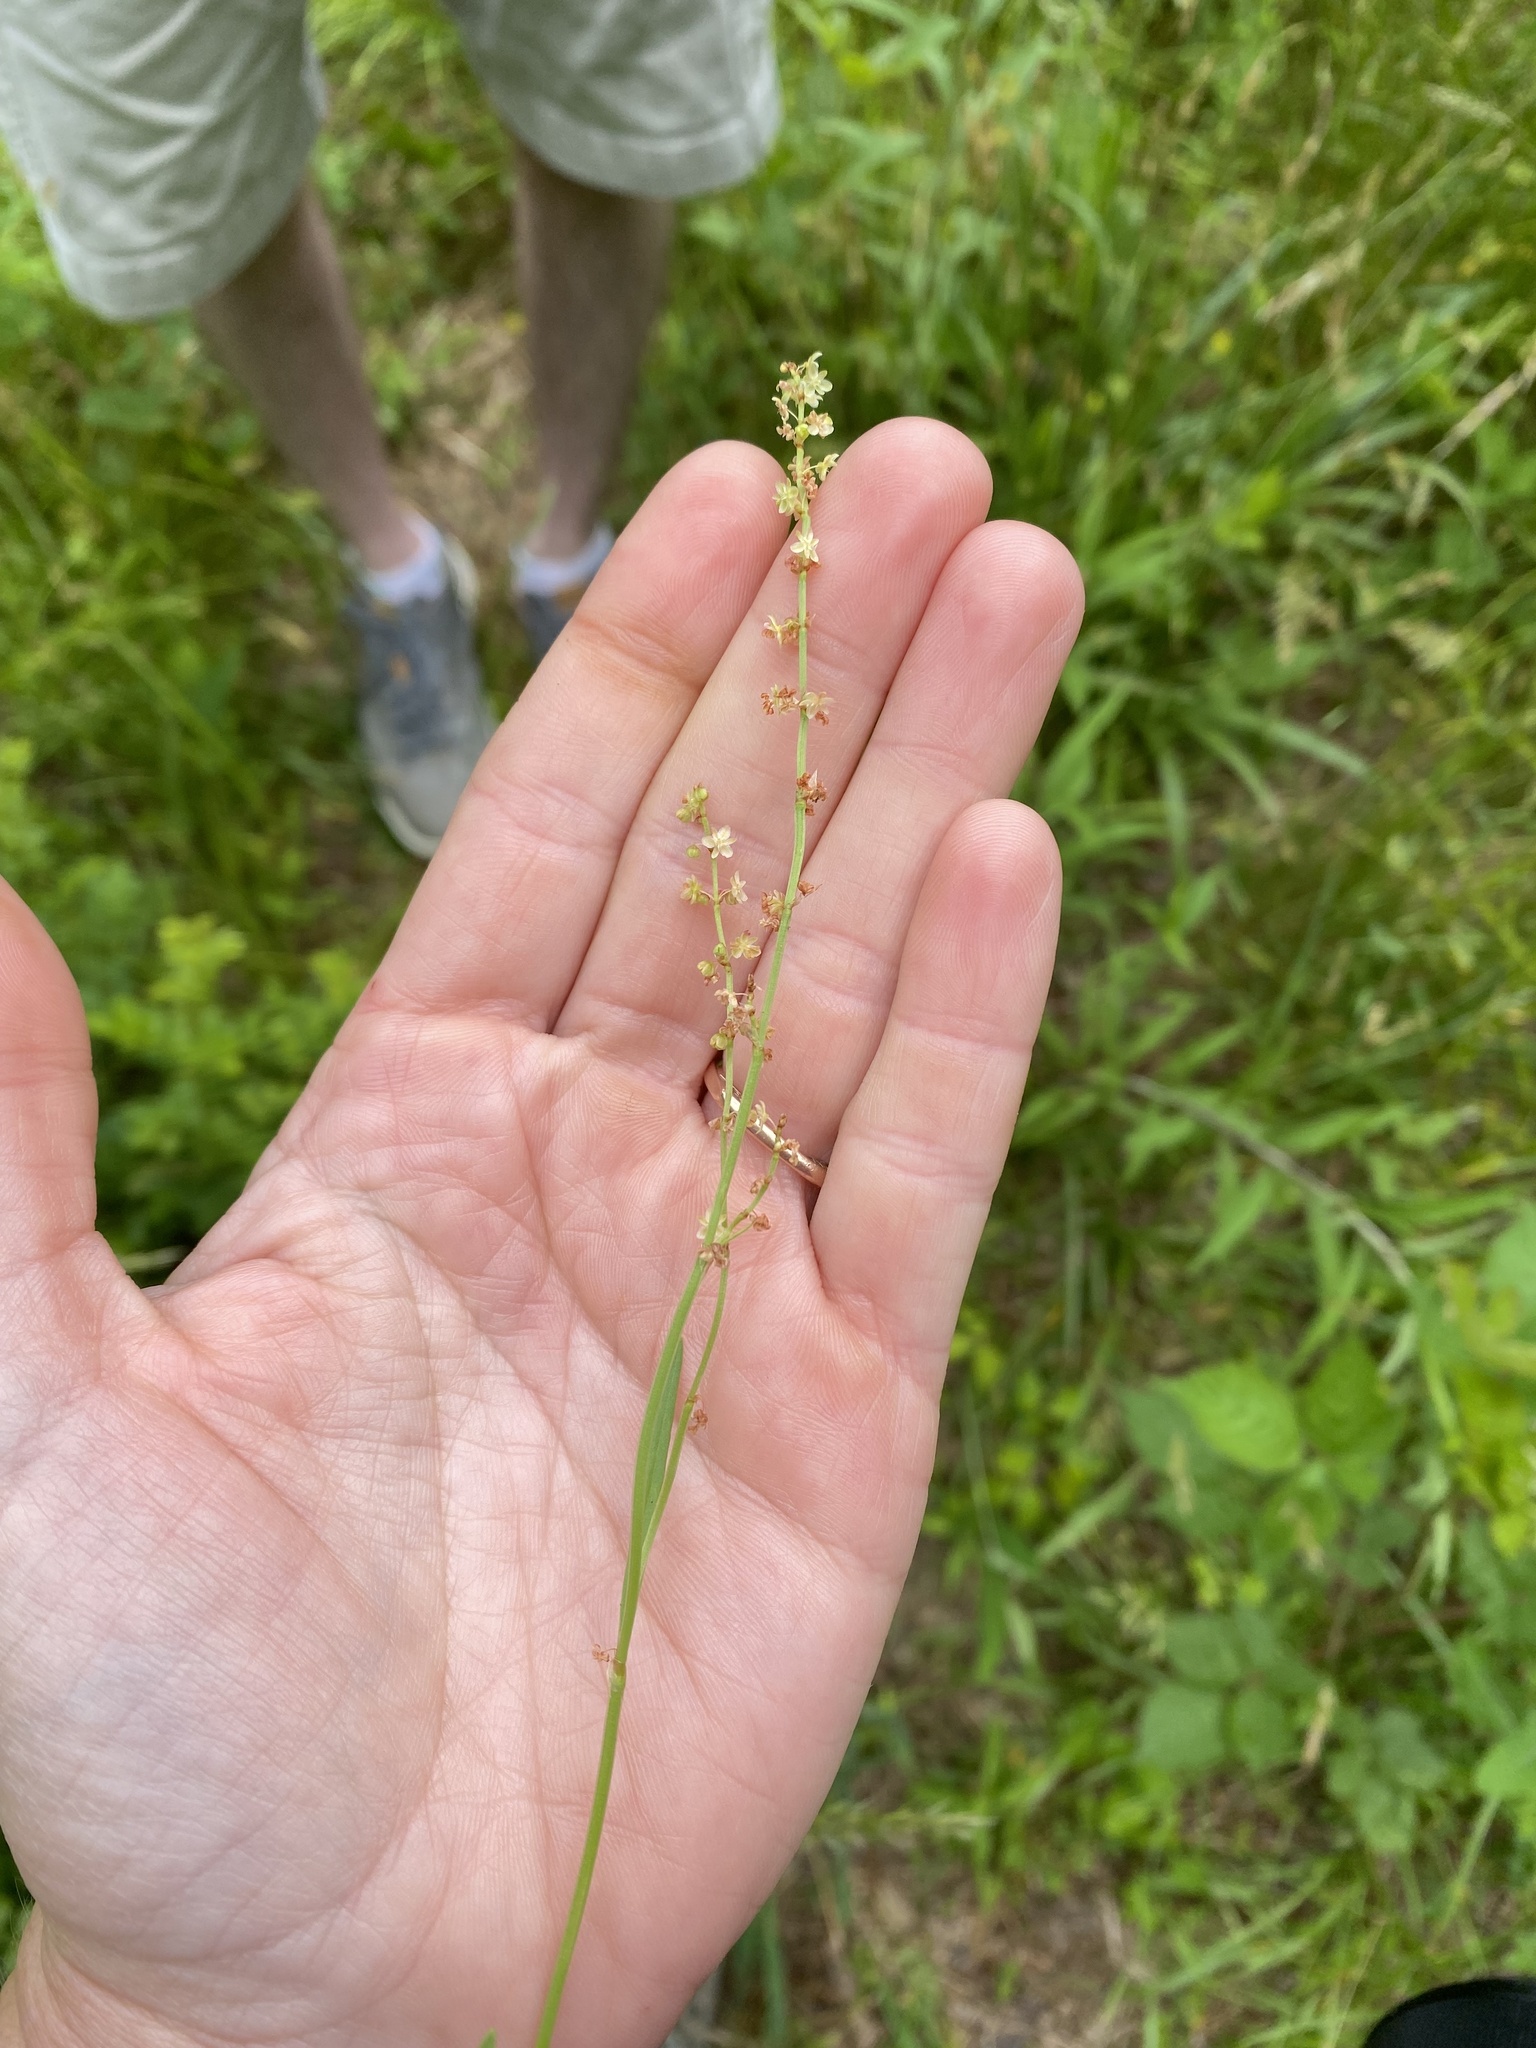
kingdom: Plantae
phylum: Tracheophyta
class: Magnoliopsida
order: Caryophyllales
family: Polygonaceae
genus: Rumex
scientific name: Rumex acetosella
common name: Common sheep sorrel
